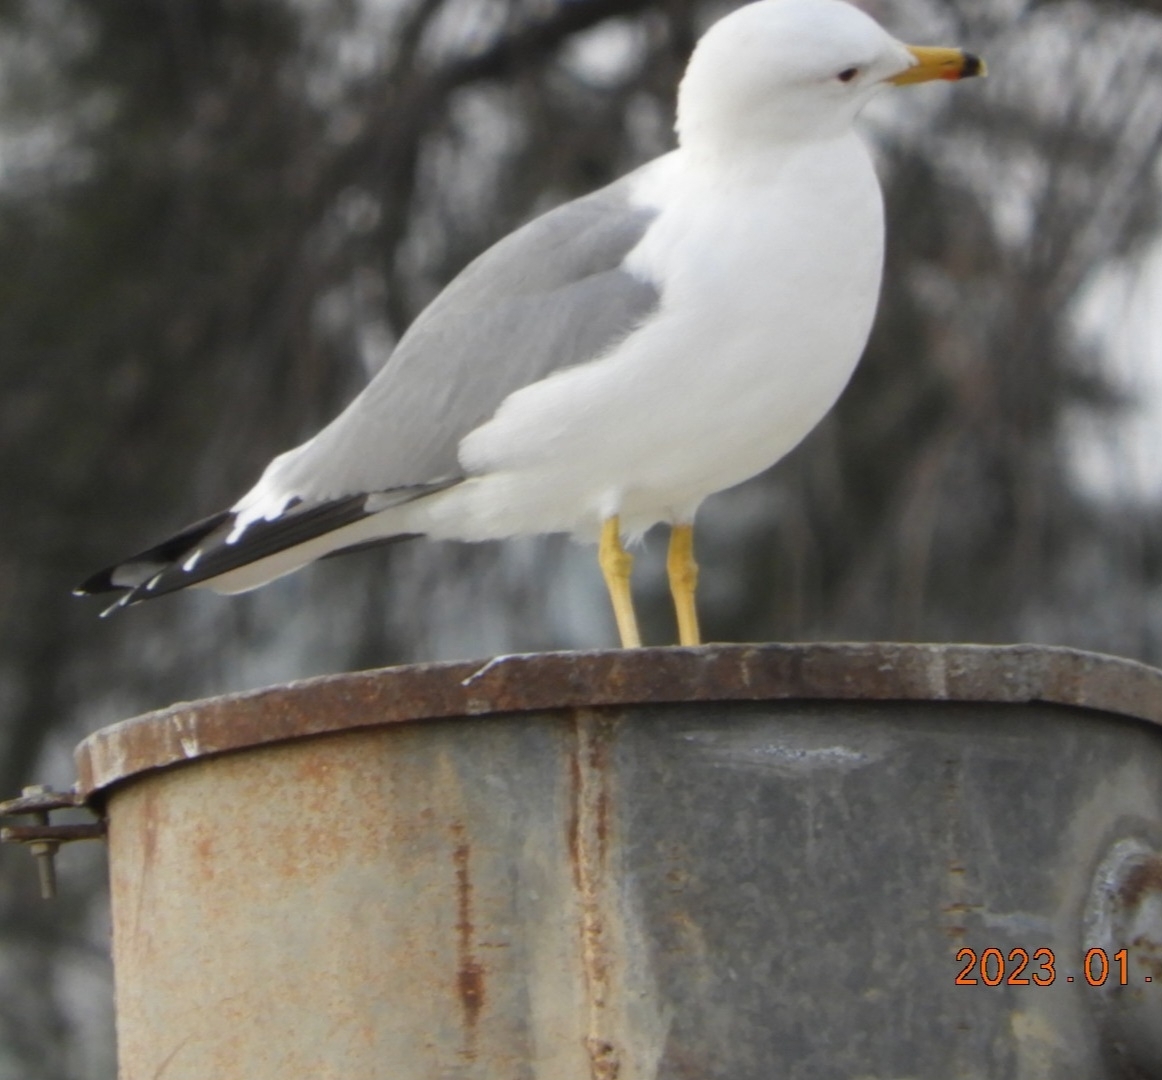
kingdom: Animalia
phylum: Chordata
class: Aves
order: Charadriiformes
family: Laridae
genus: Larus
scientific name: Larus armenicus
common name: Armenian gull
